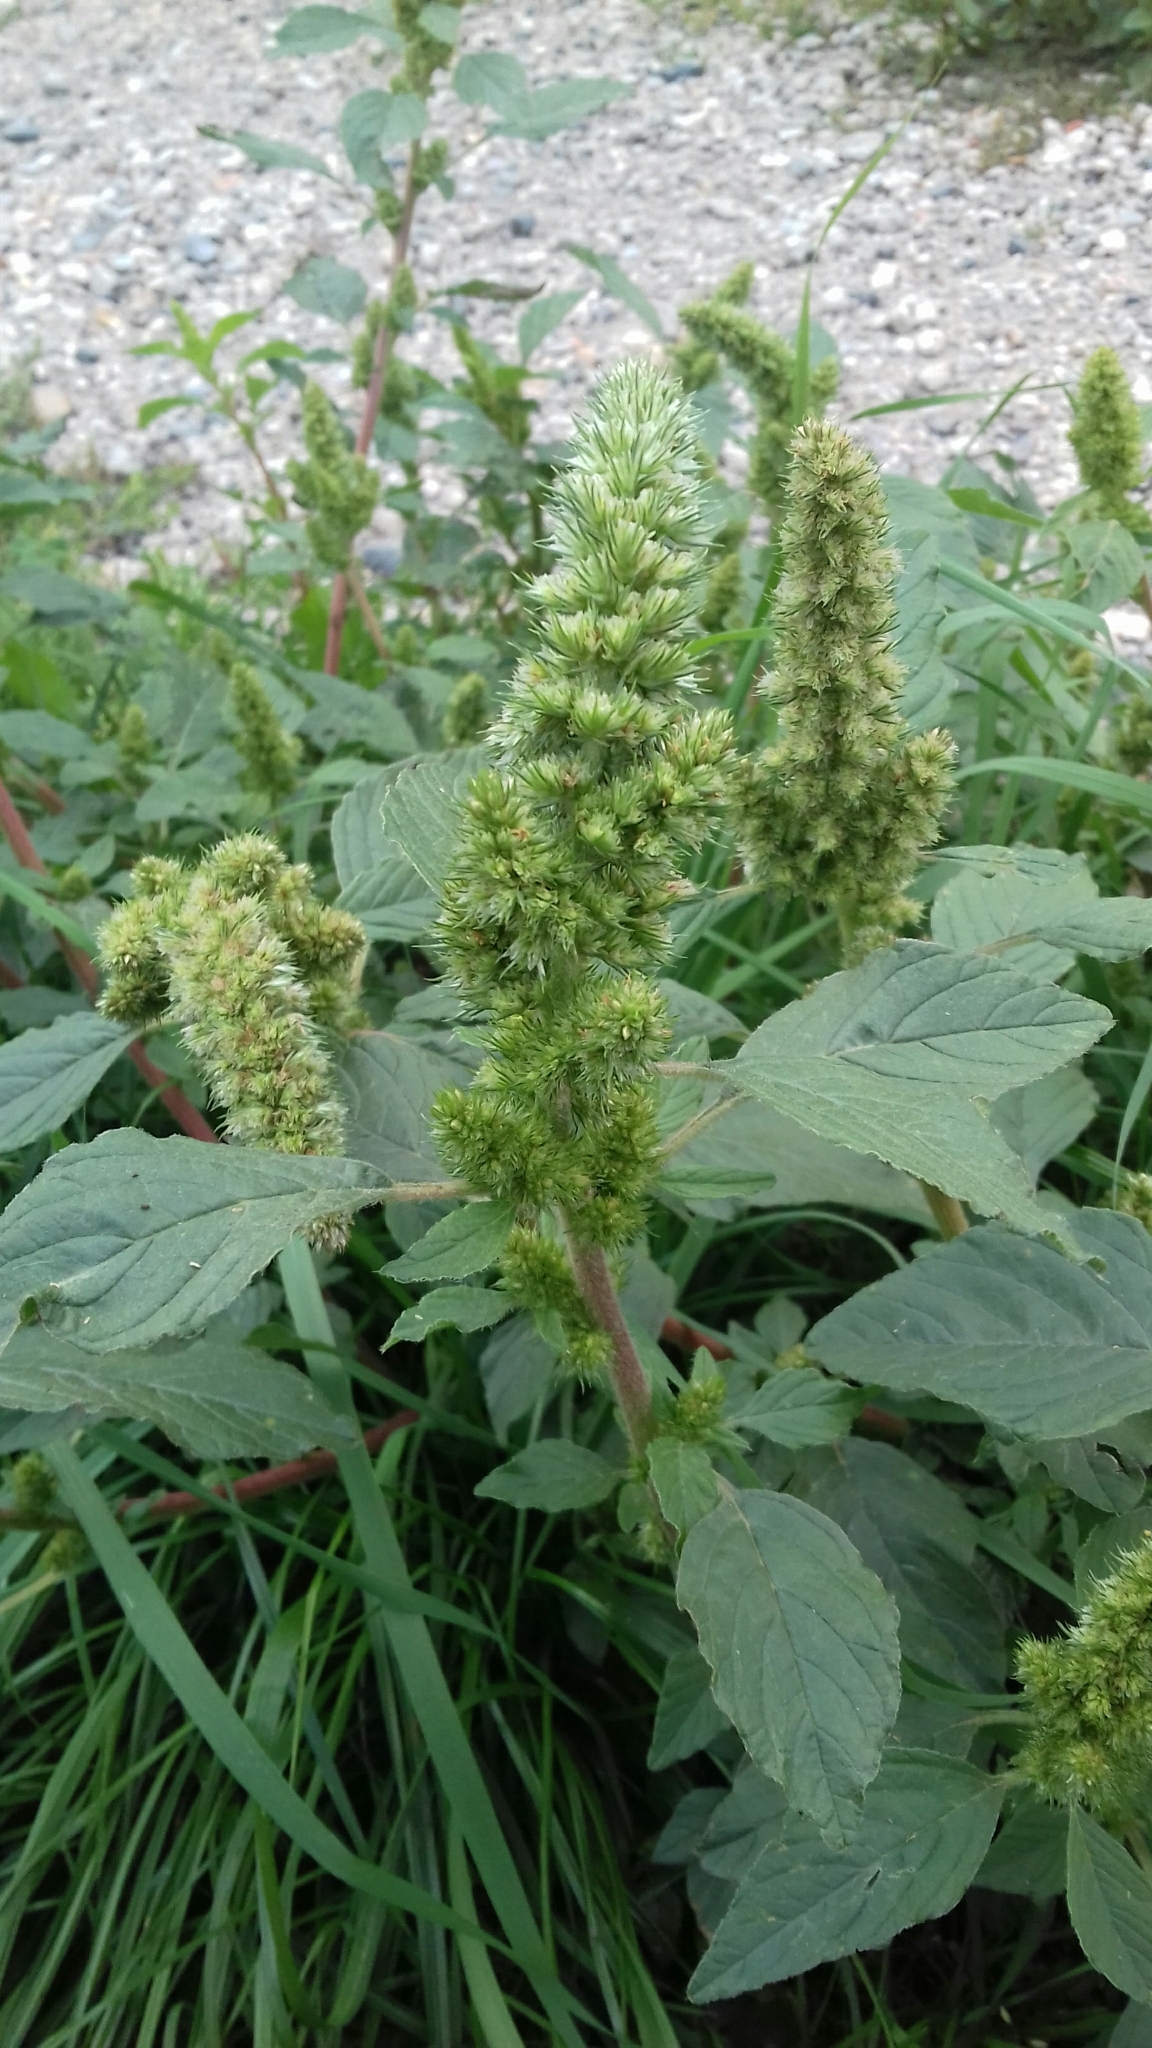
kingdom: Plantae
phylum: Tracheophyta
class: Magnoliopsida
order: Caryophyllales
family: Amaranthaceae
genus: Amaranthus
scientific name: Amaranthus retroflexus
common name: Redroot amaranth
